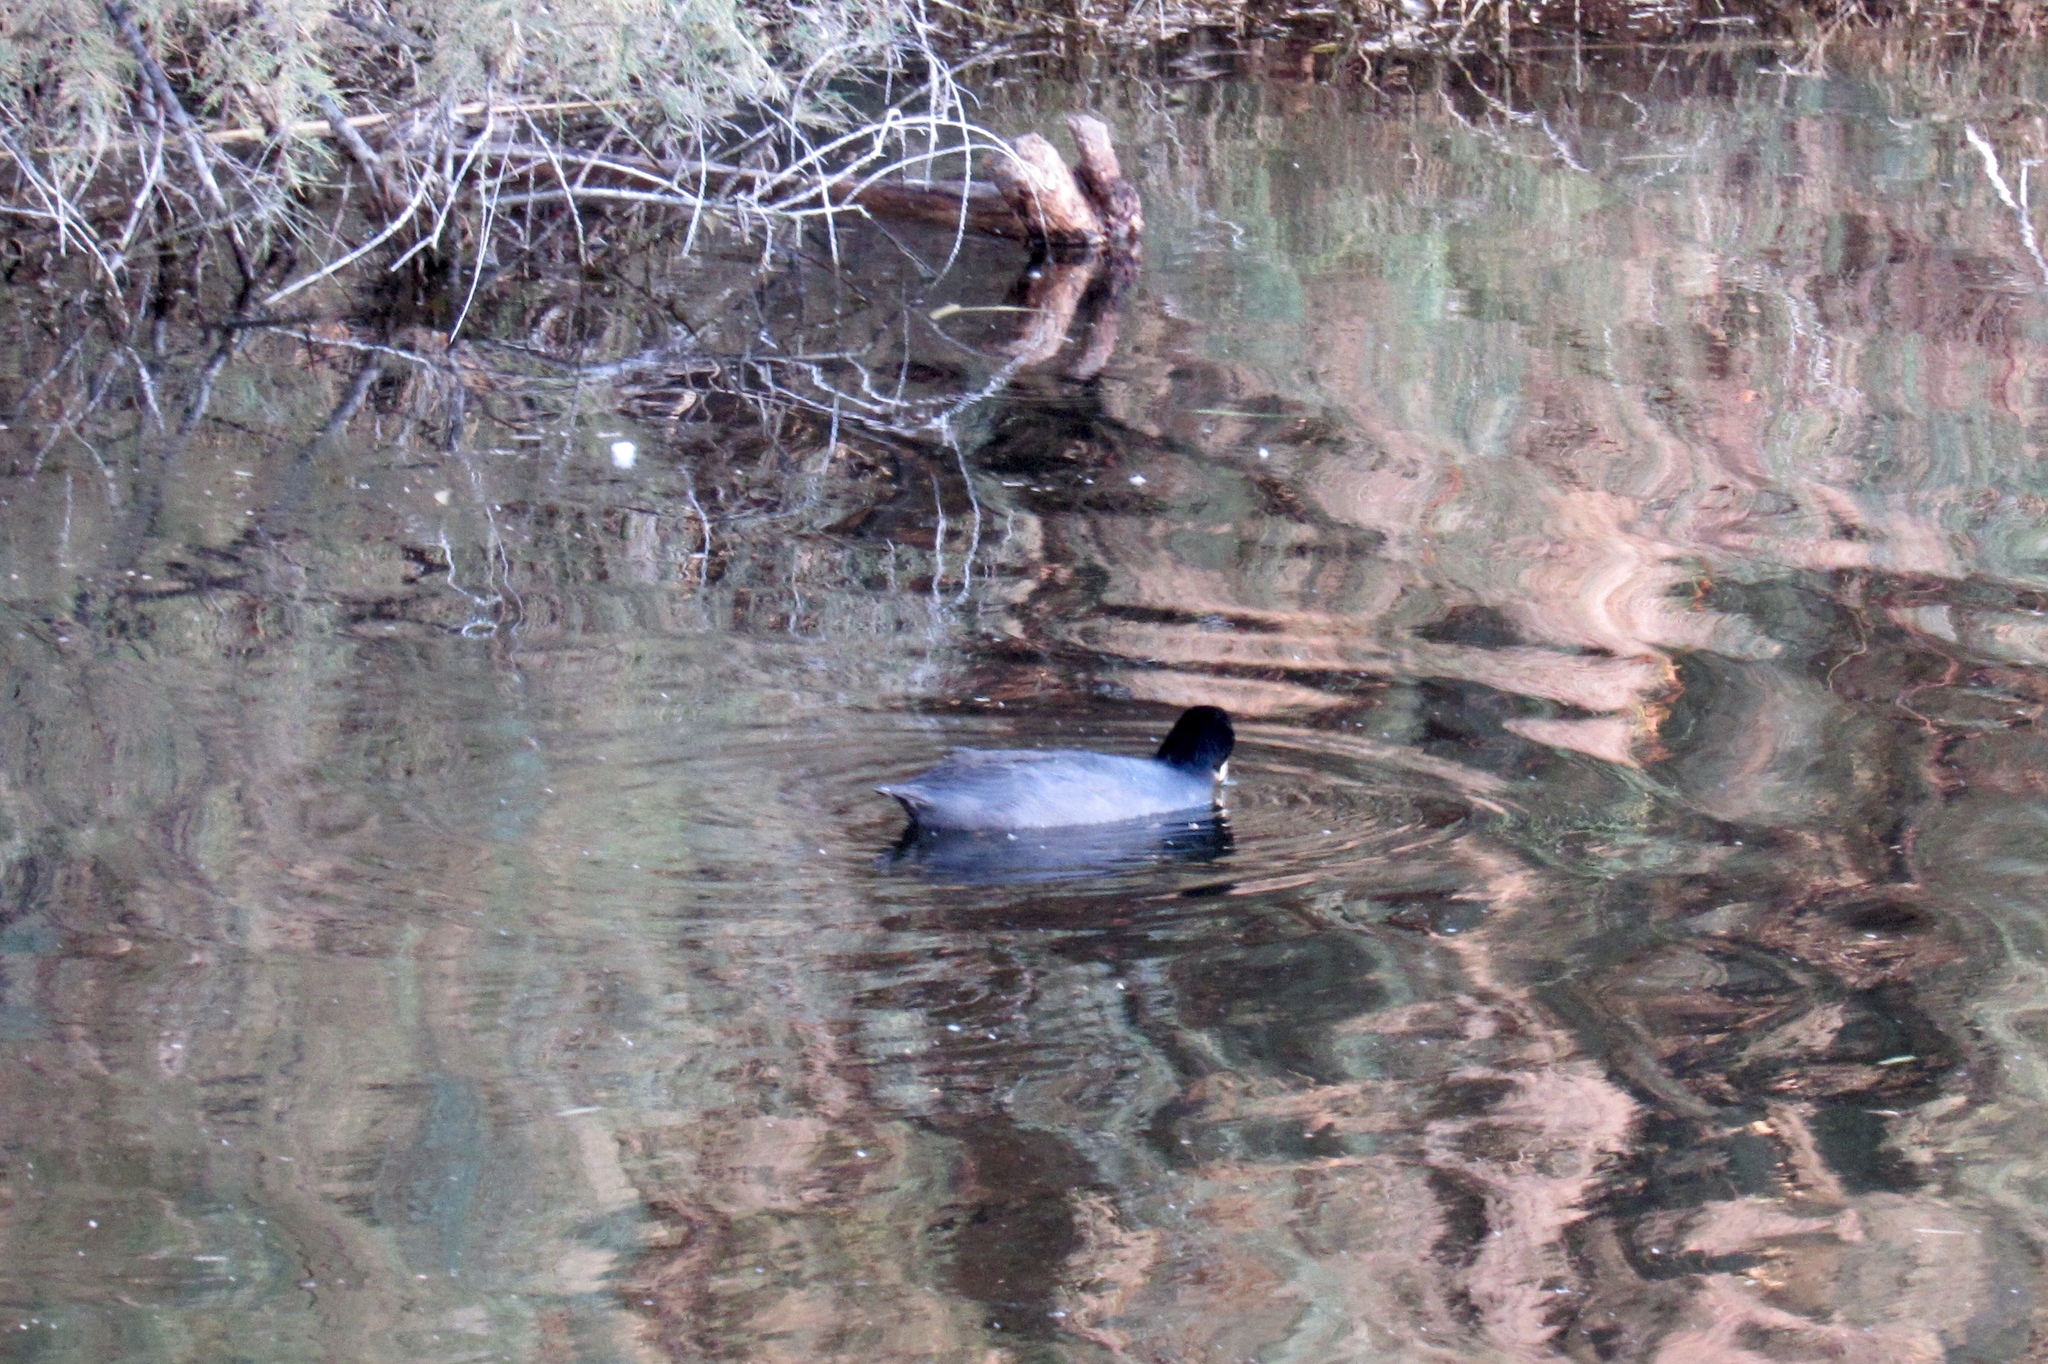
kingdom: Animalia
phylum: Chordata
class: Aves
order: Gruiformes
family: Rallidae
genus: Fulica
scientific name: Fulica americana
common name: American coot
